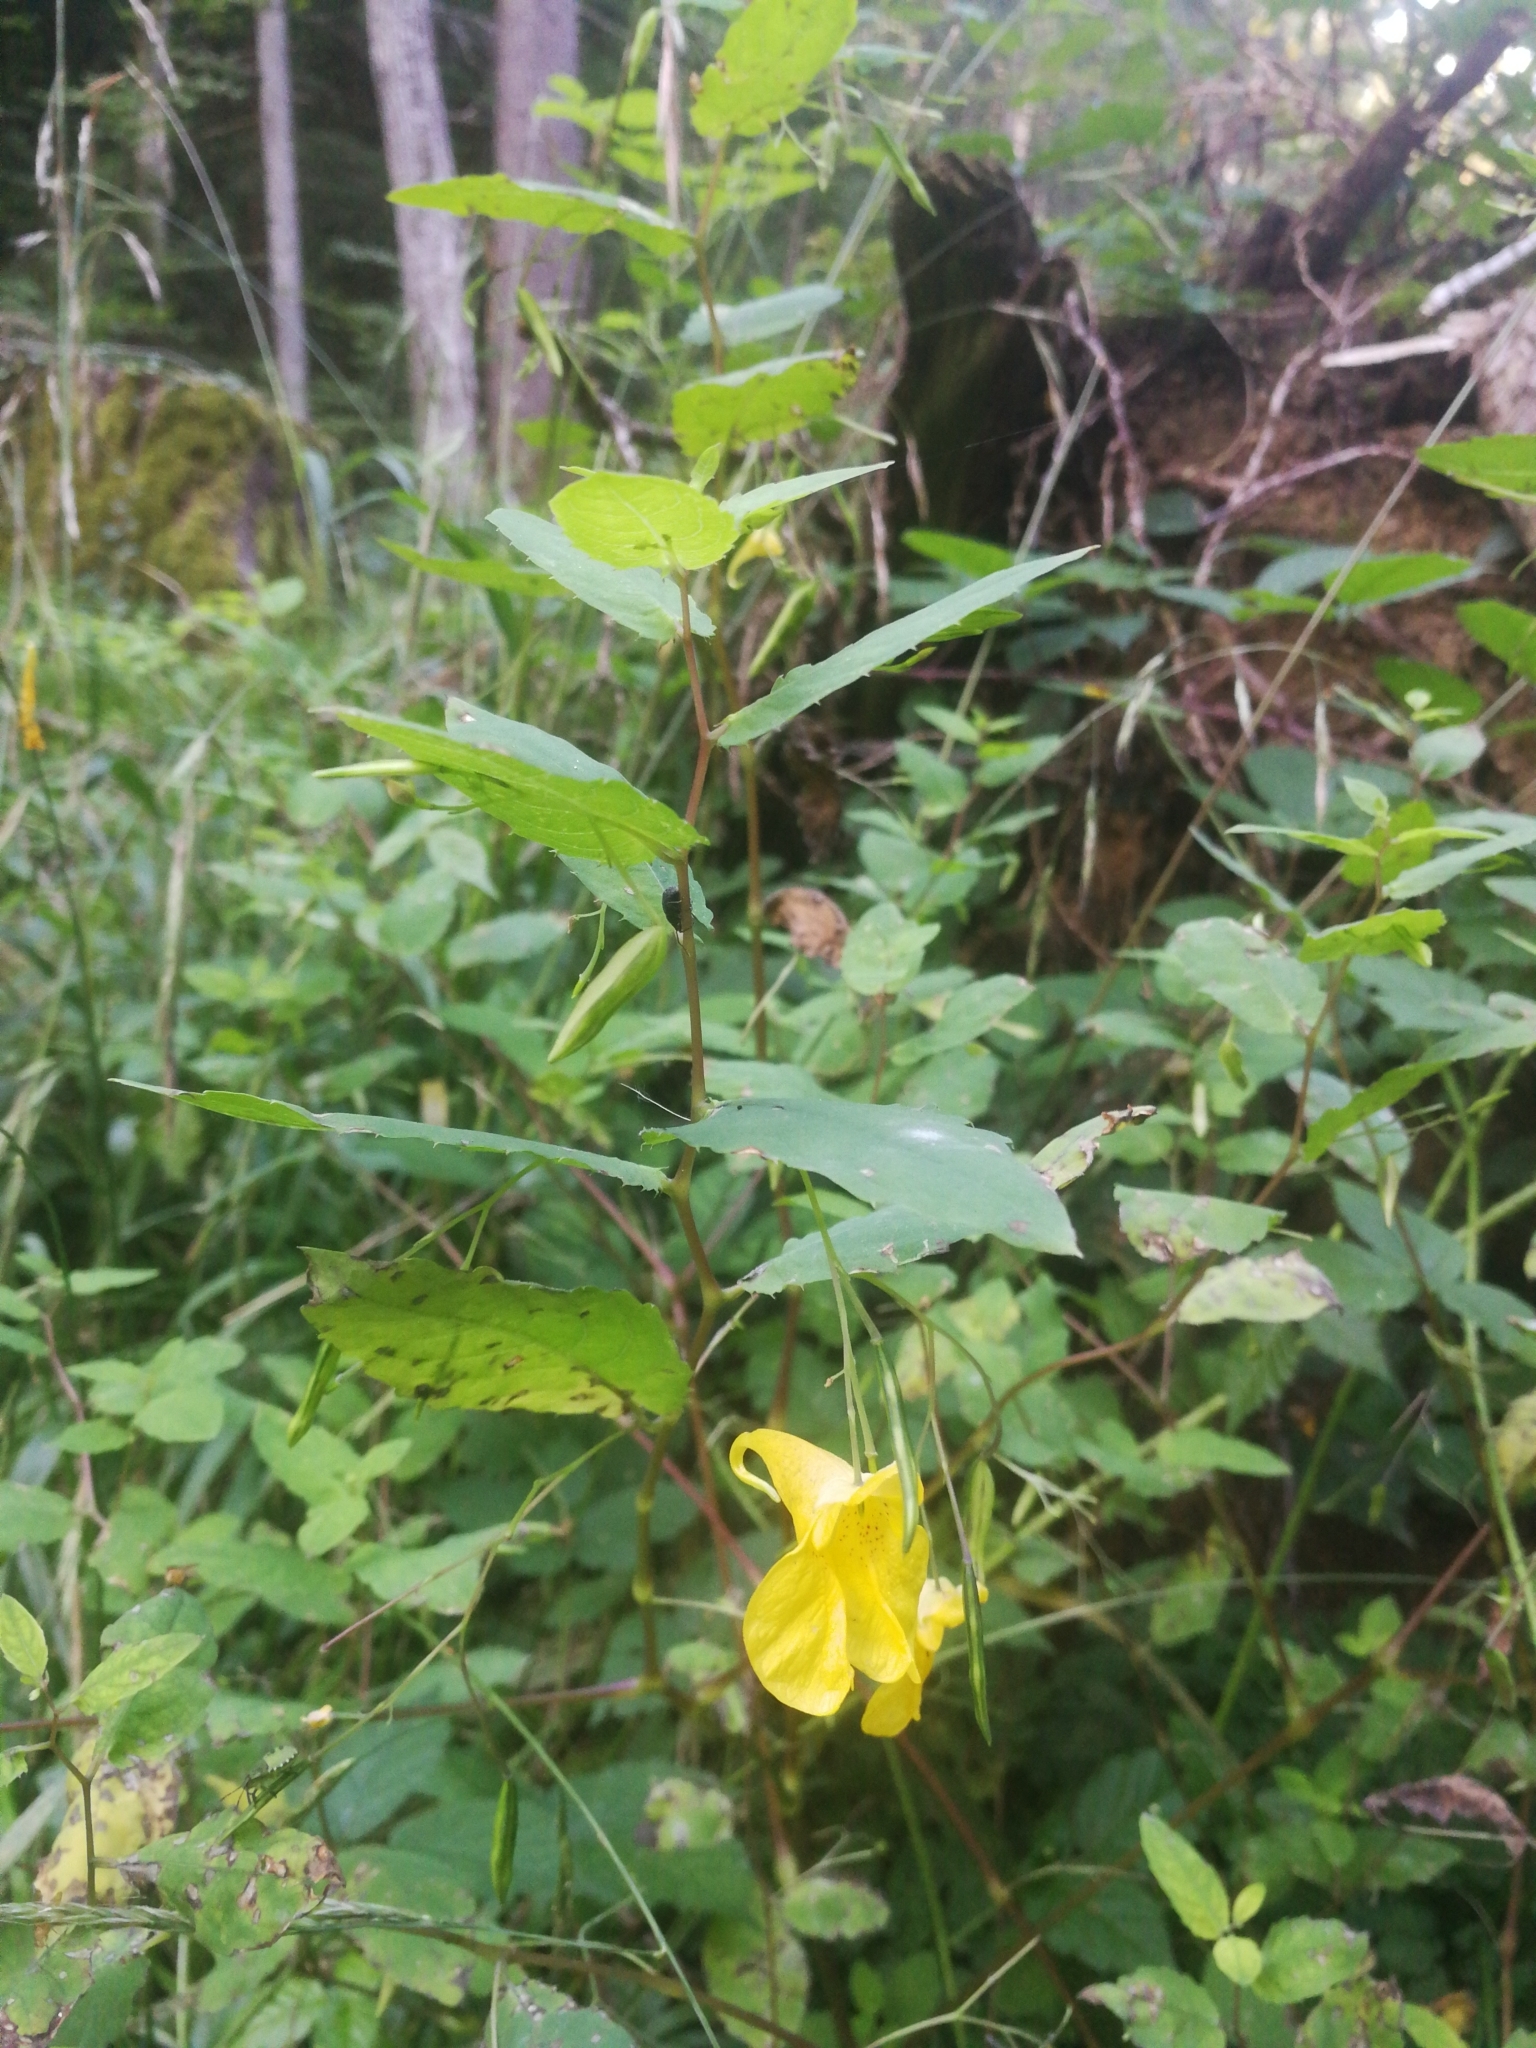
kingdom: Plantae
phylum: Tracheophyta
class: Magnoliopsida
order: Ericales
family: Balsaminaceae
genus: Impatiens
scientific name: Impatiens noli-tangere
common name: Touch-me-not balsam
